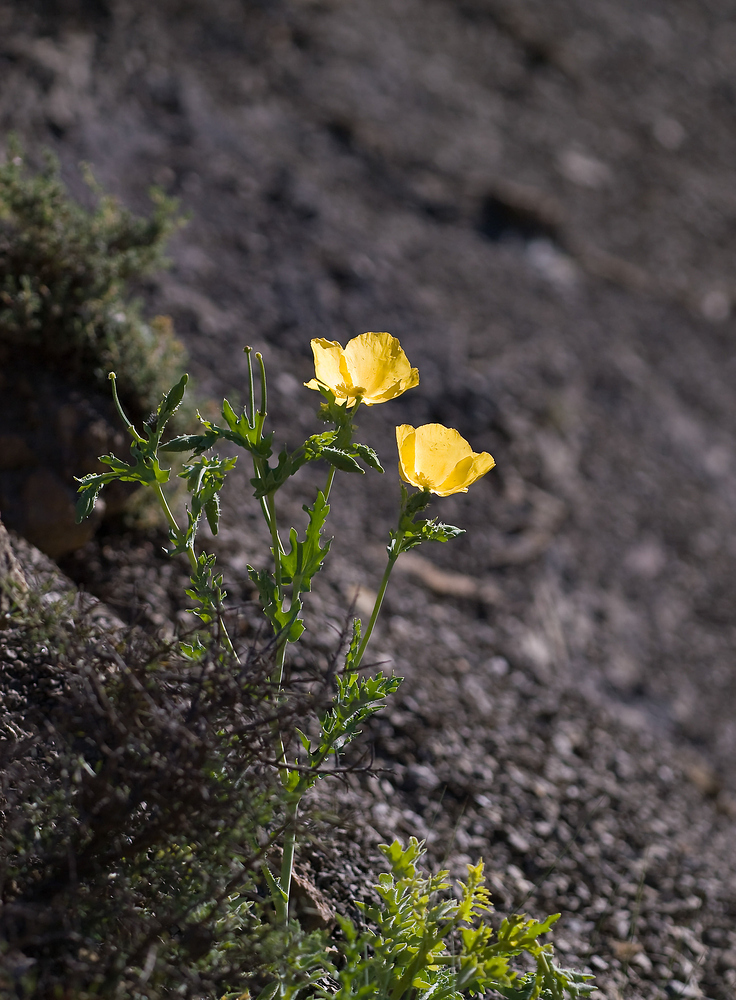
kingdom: Plantae
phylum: Tracheophyta
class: Magnoliopsida
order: Ranunculales
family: Papaveraceae
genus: Glaucium
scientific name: Glaucium flavum
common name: Yellow horned-poppy
